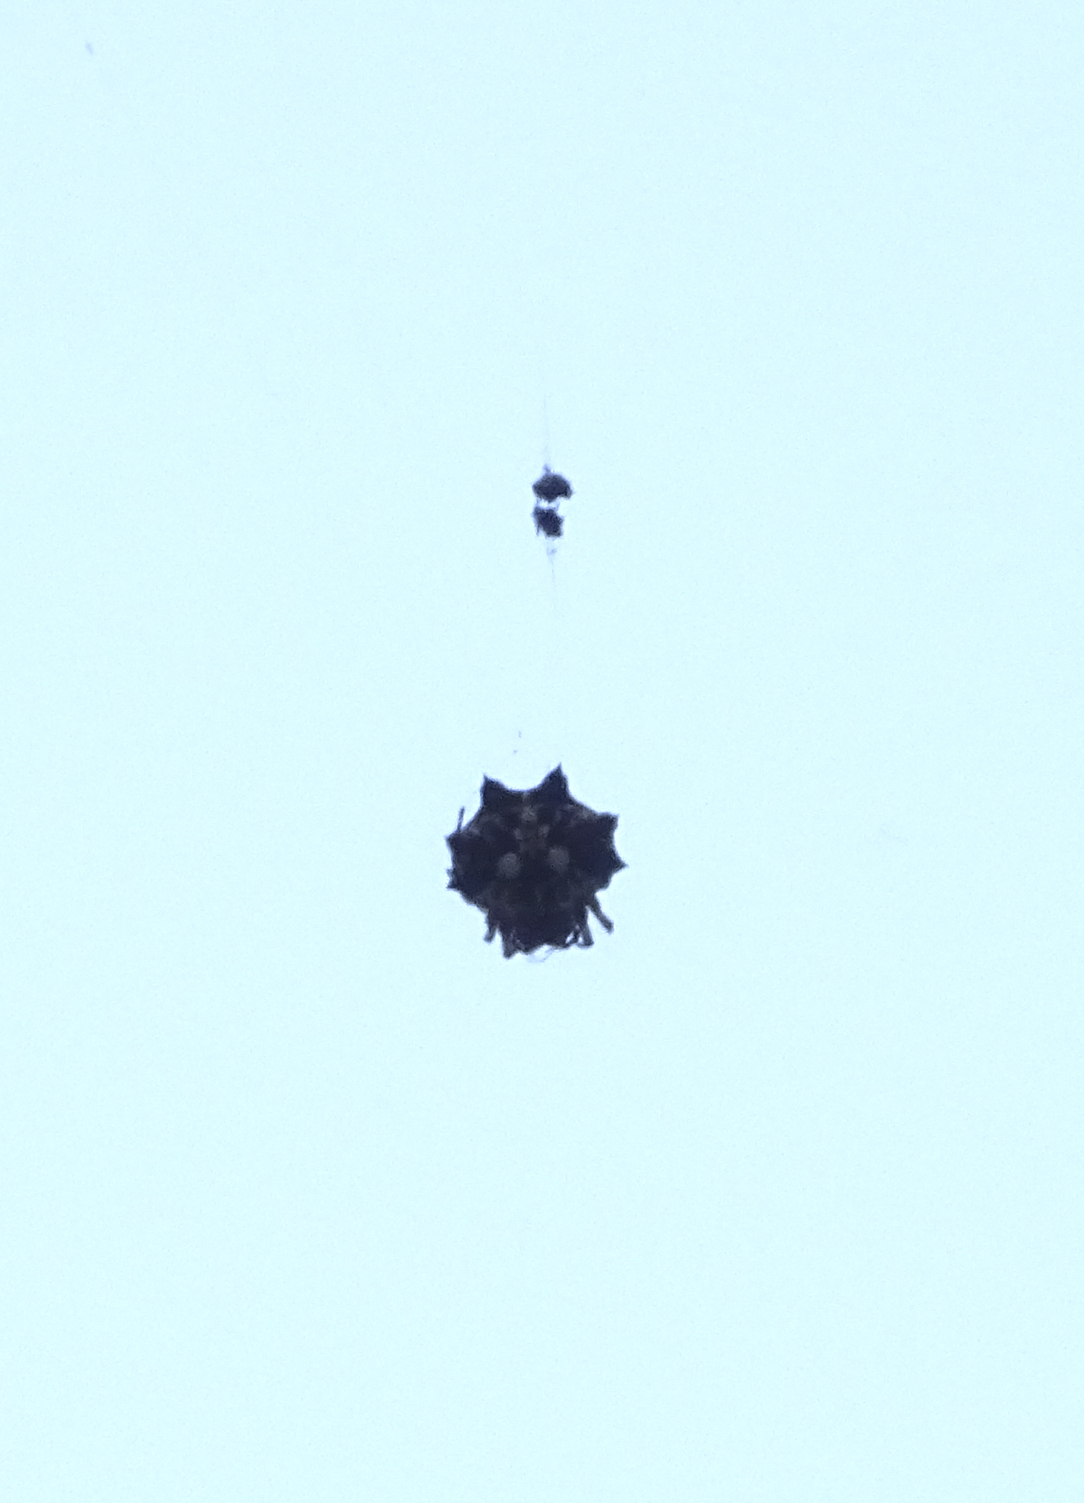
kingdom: Animalia
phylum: Arthropoda
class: Arachnida
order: Araneae
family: Araneidae
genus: Thelacantha
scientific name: Thelacantha brevispina
